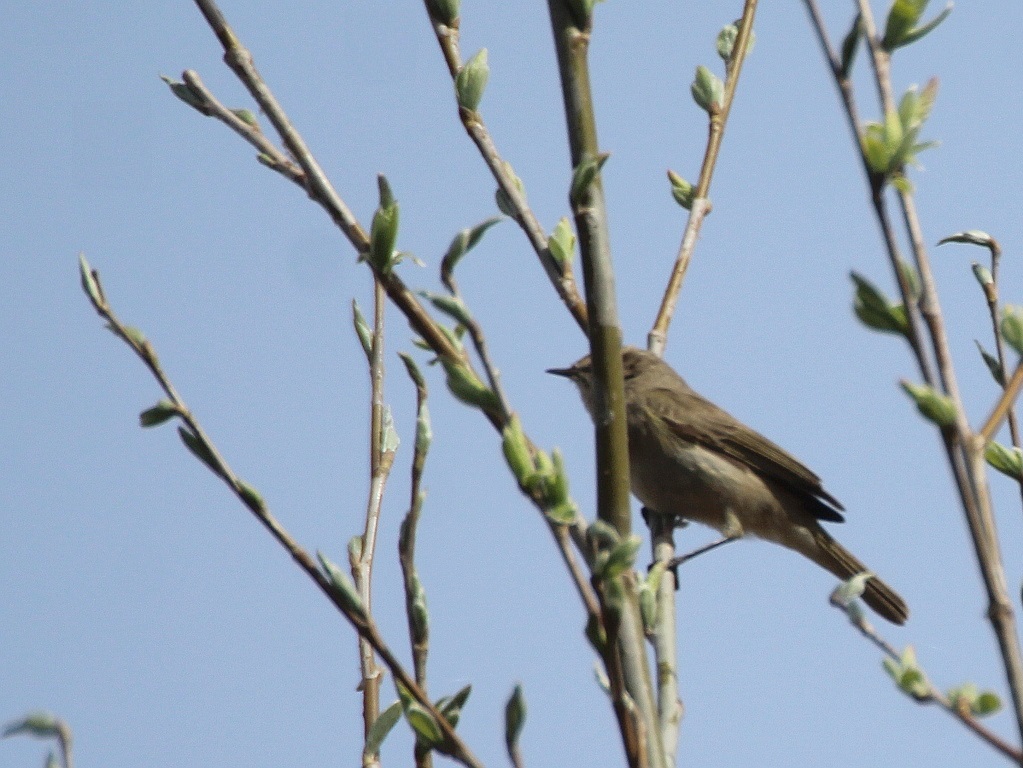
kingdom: Animalia
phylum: Chordata
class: Aves
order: Passeriformes
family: Phylloscopidae
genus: Phylloscopus
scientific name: Phylloscopus collybita
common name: Common chiffchaff
